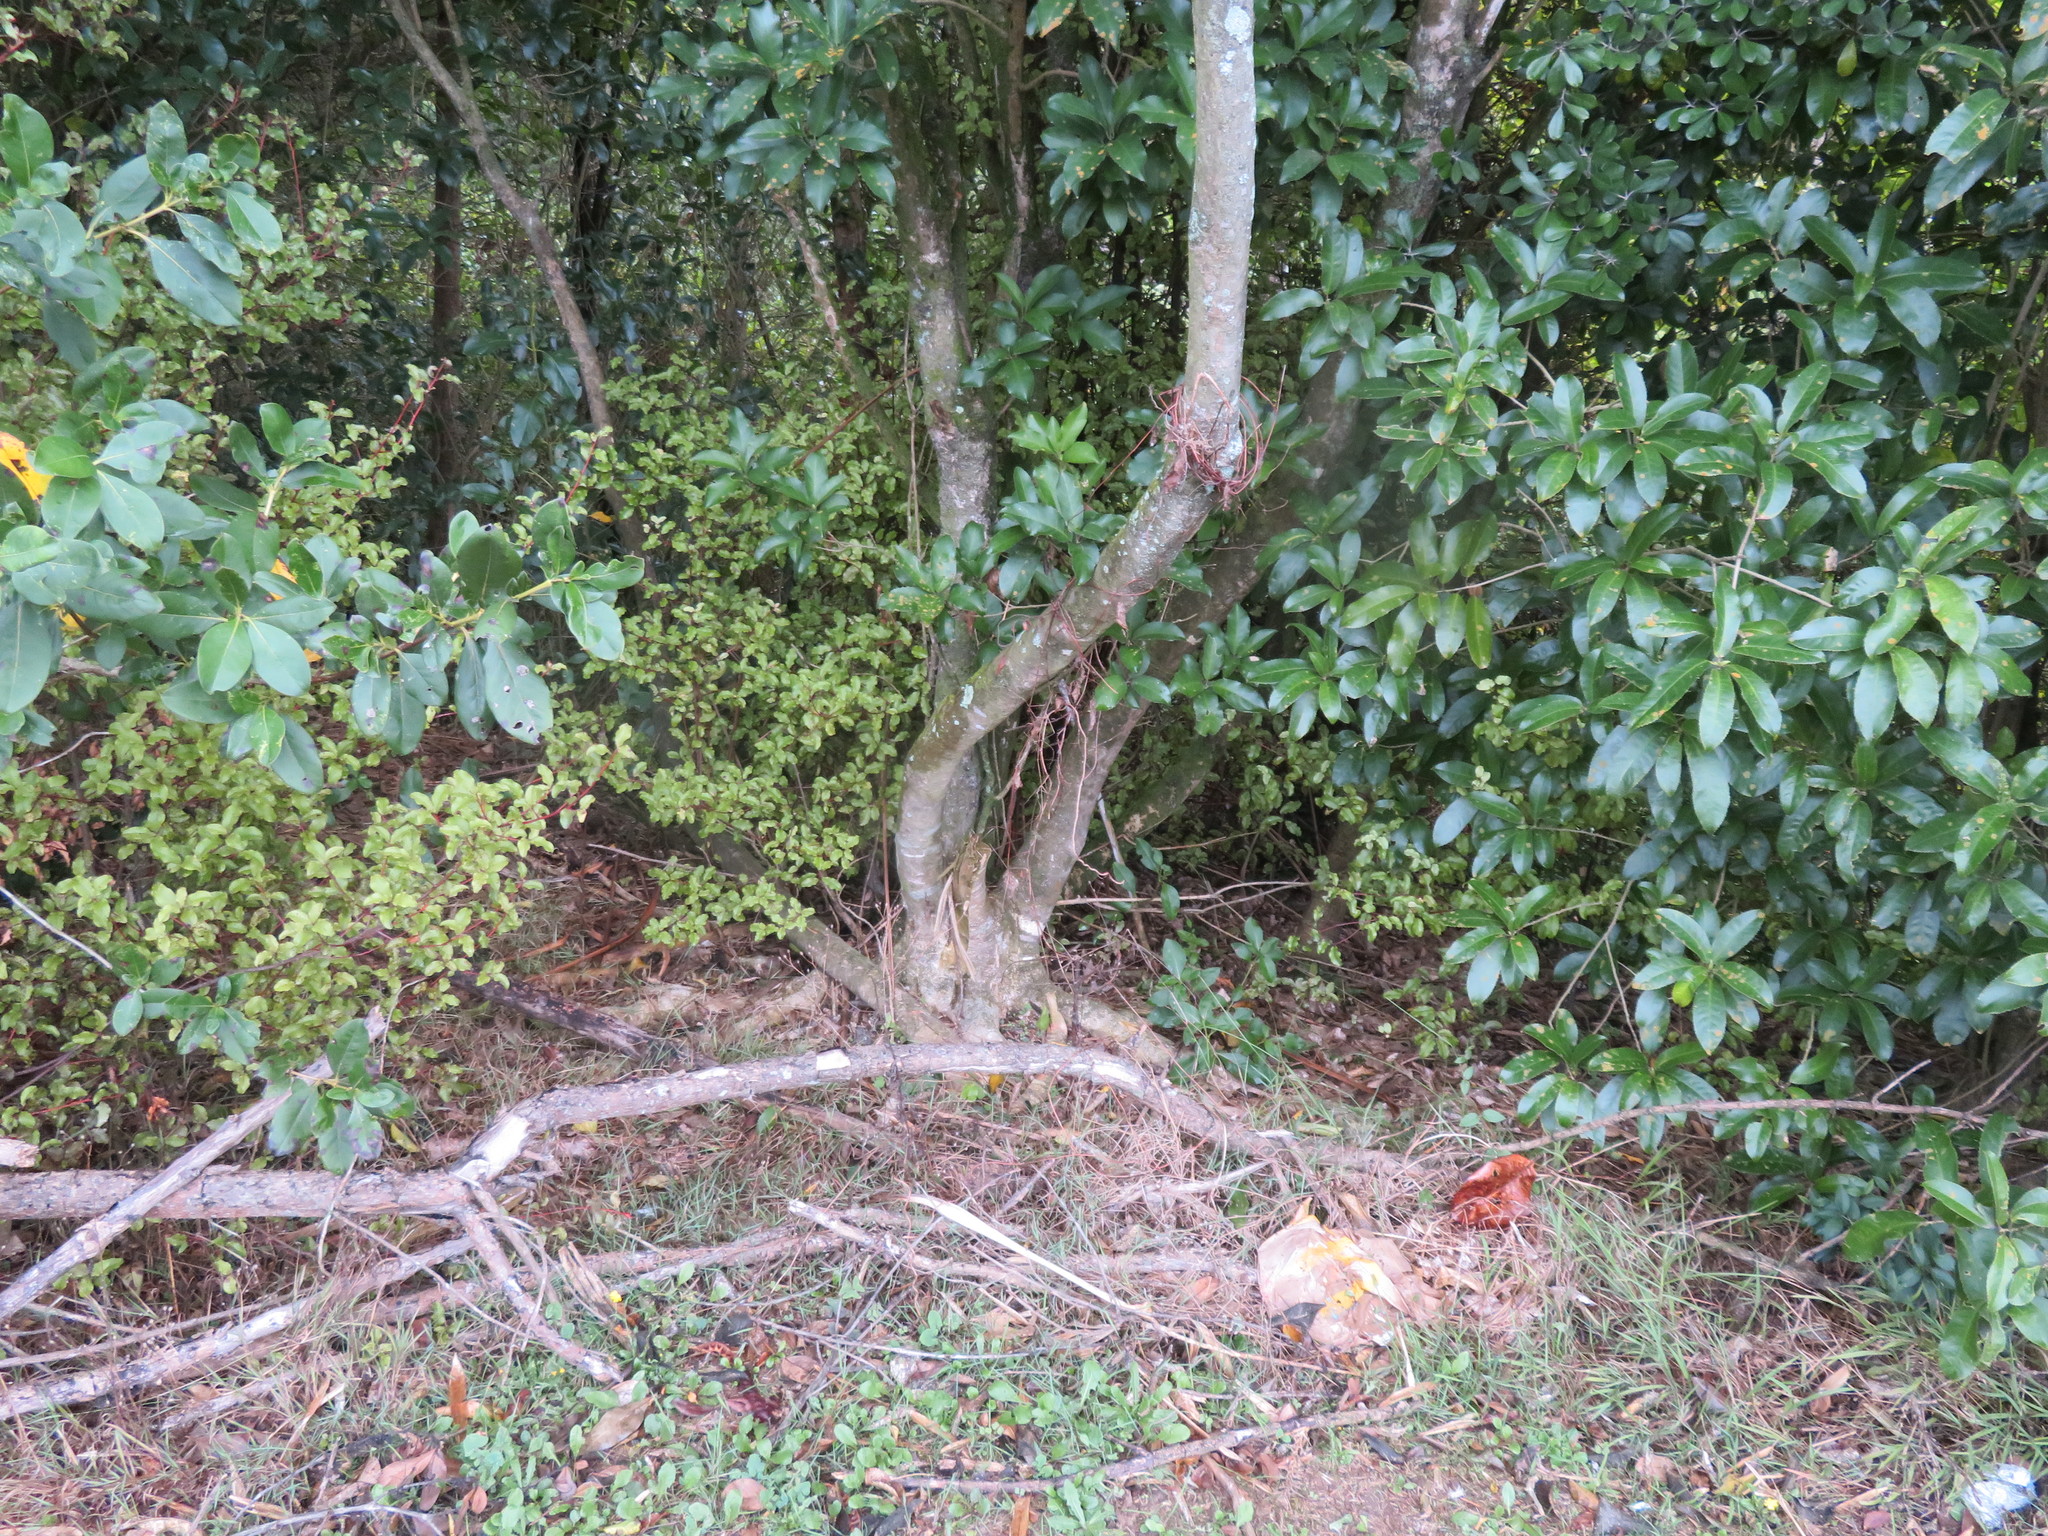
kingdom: Plantae
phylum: Tracheophyta
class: Magnoliopsida
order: Ericales
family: Primulaceae
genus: Myrsine
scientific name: Myrsine australis
